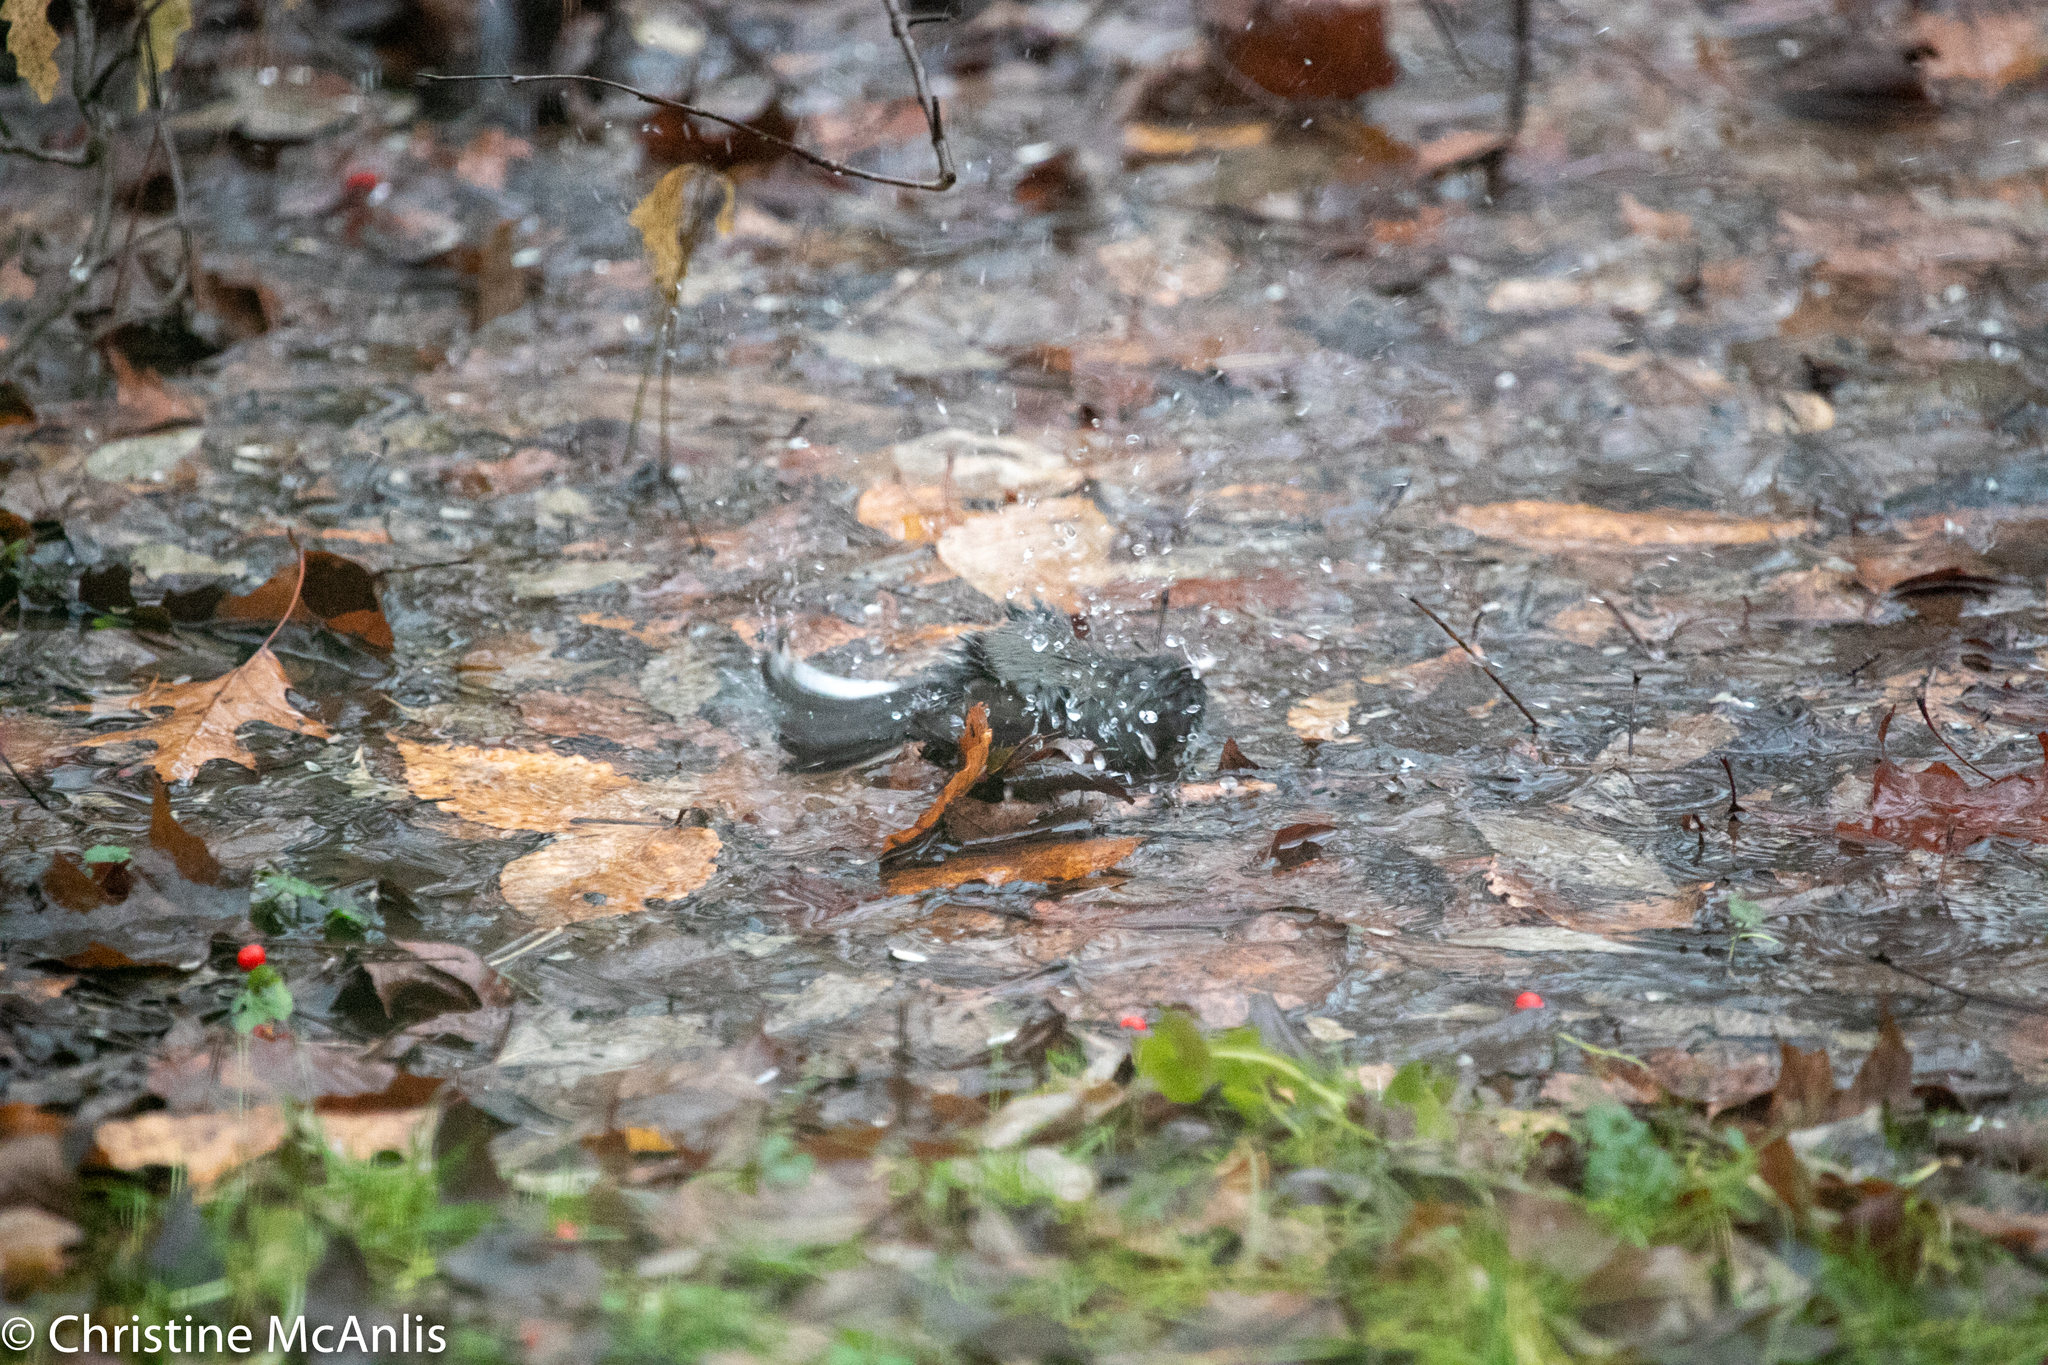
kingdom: Animalia
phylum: Chordata
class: Aves
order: Passeriformes
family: Passerellidae
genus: Junco
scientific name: Junco hyemalis
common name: Dark-eyed junco
